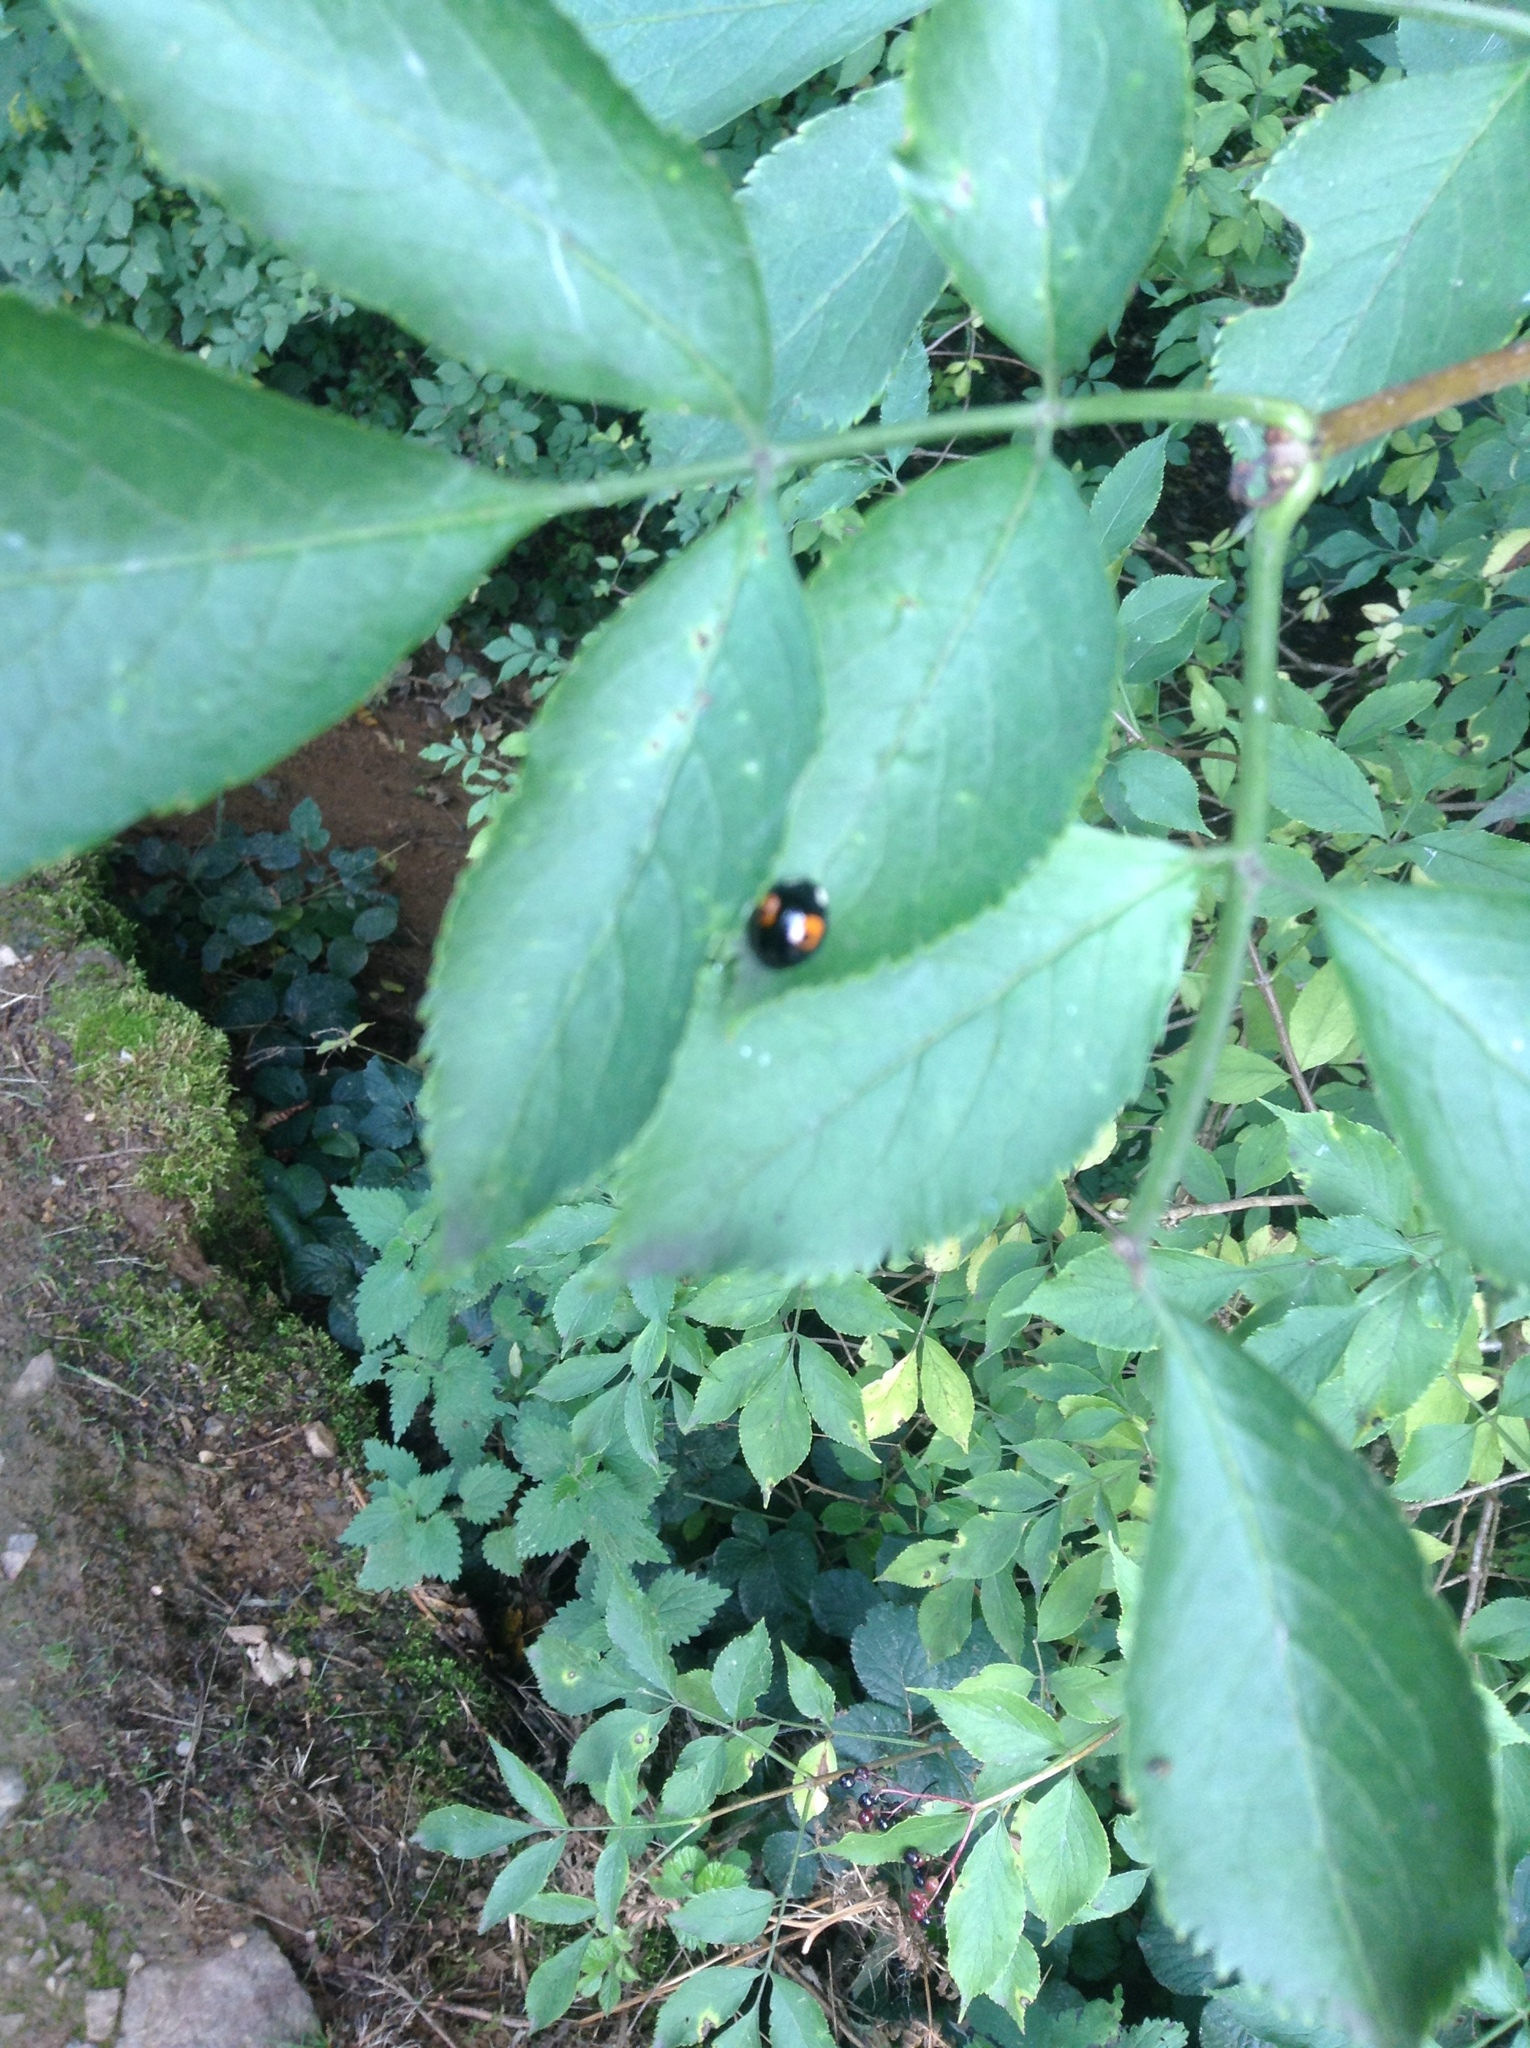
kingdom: Animalia
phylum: Arthropoda
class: Insecta
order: Coleoptera
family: Coccinellidae
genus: Harmonia
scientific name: Harmonia axyridis
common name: Harlequin ladybird
